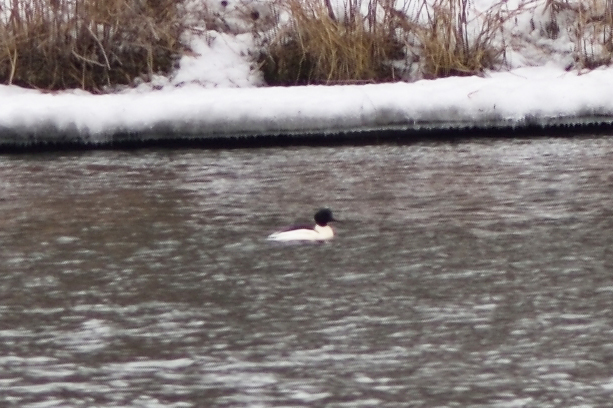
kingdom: Animalia
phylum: Chordata
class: Aves
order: Anseriformes
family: Anatidae
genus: Mergus
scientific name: Mergus merganser
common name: Common merganser
